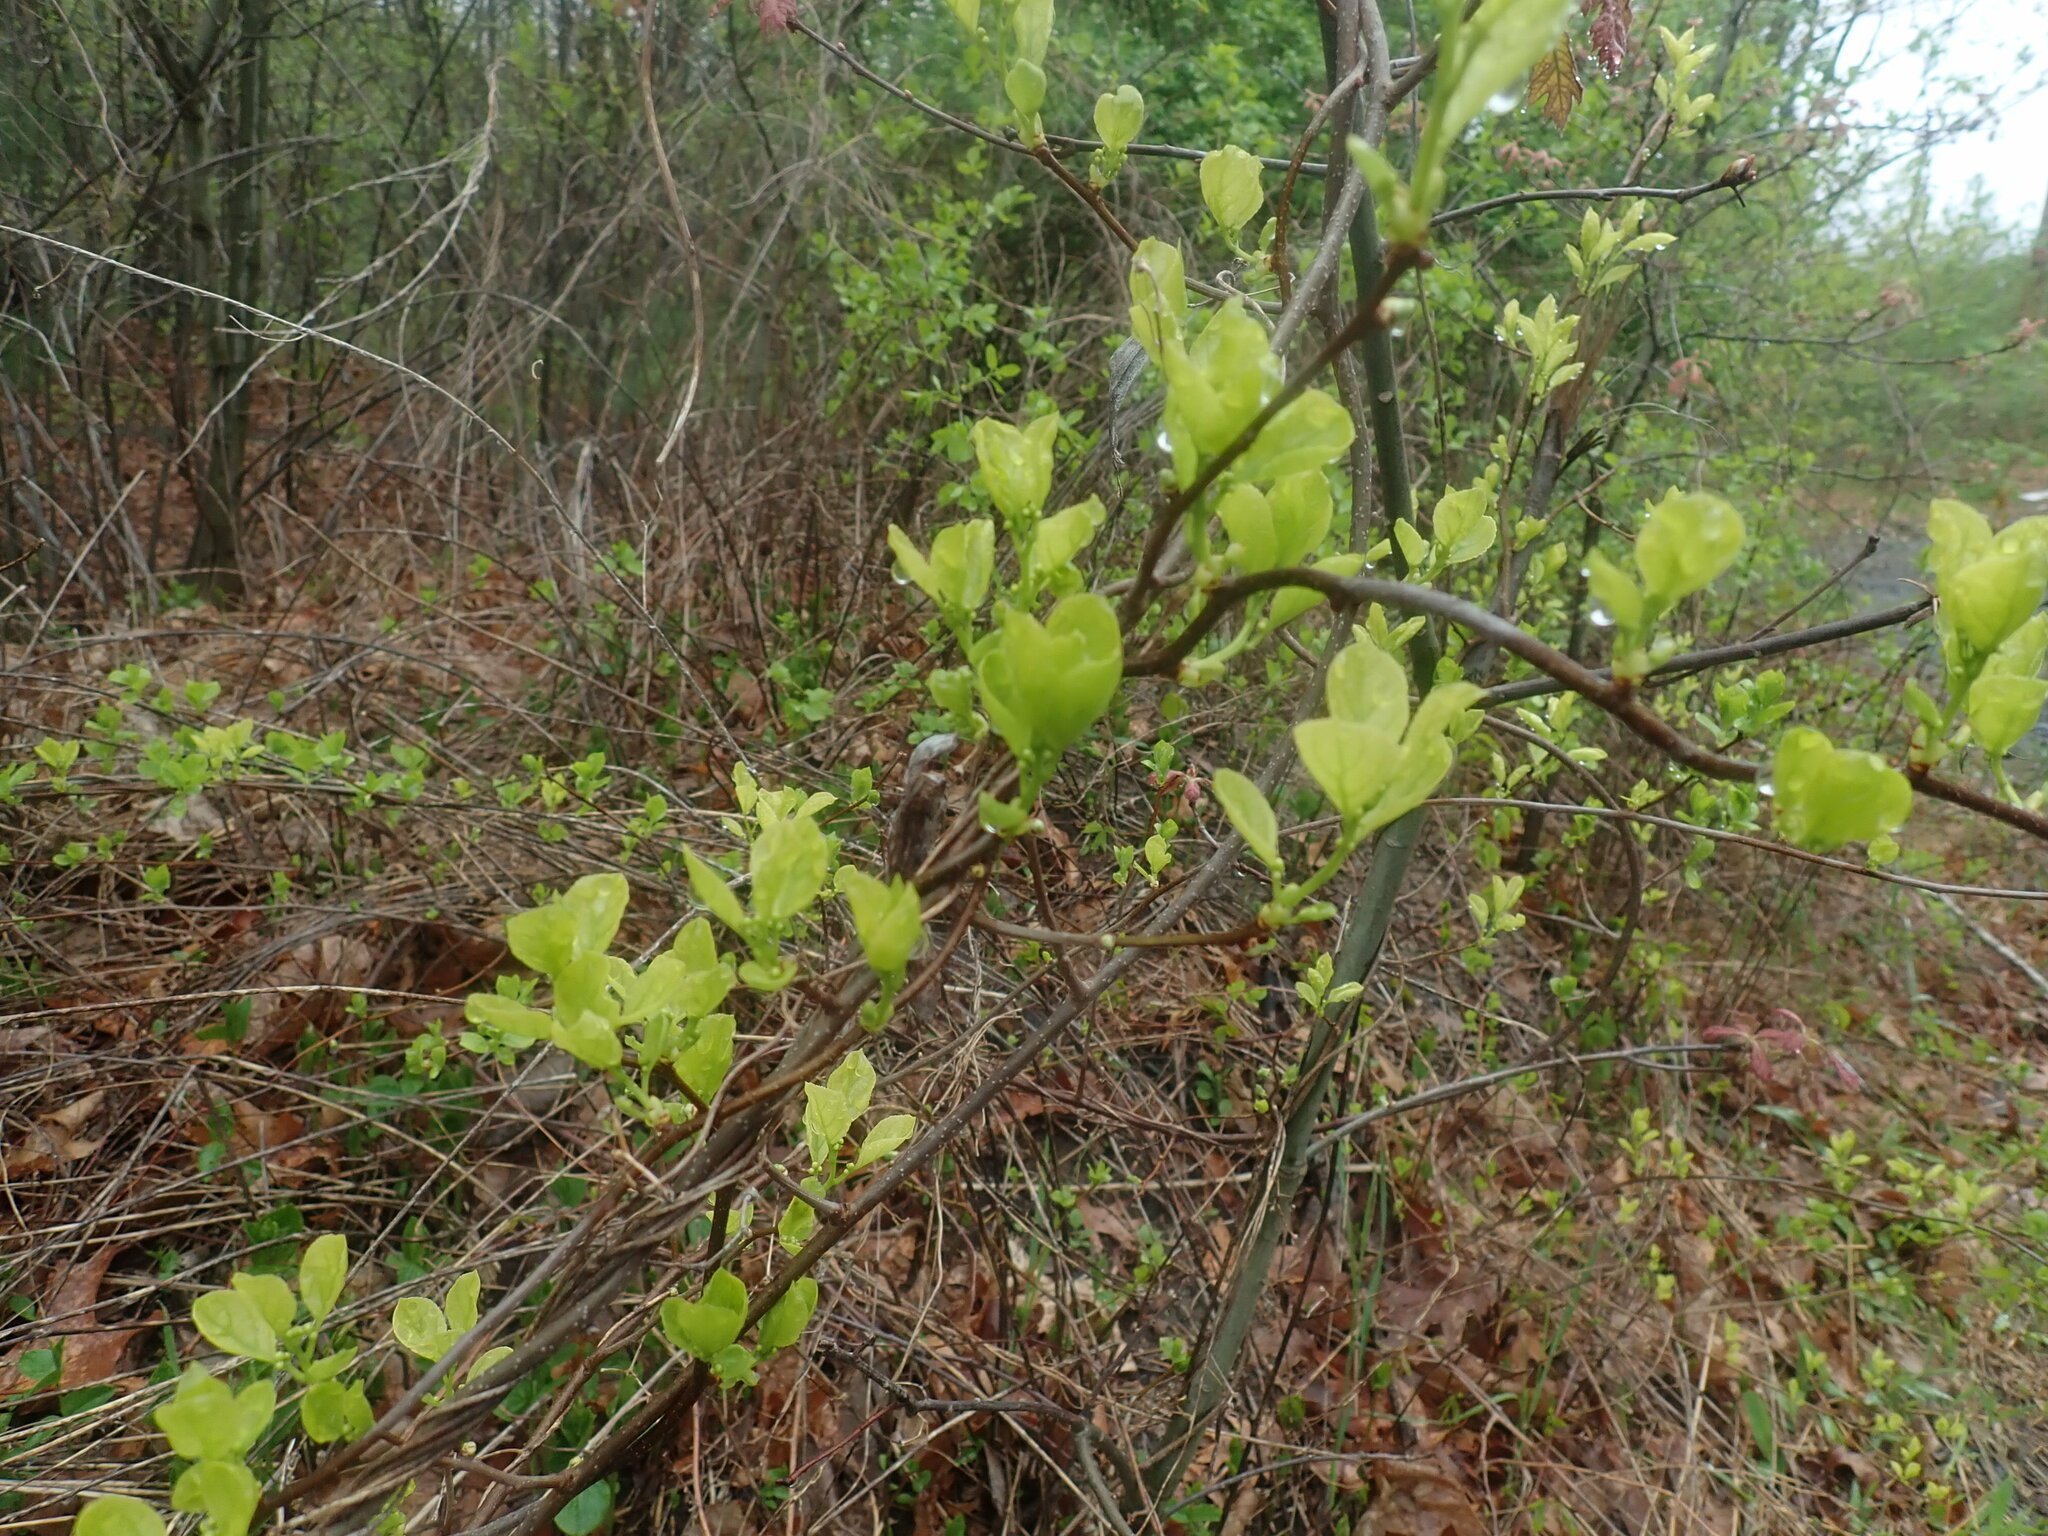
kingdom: Plantae
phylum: Tracheophyta
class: Magnoliopsida
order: Celastrales
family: Celastraceae
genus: Celastrus
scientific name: Celastrus orbiculatus
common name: Oriental bittersweet
